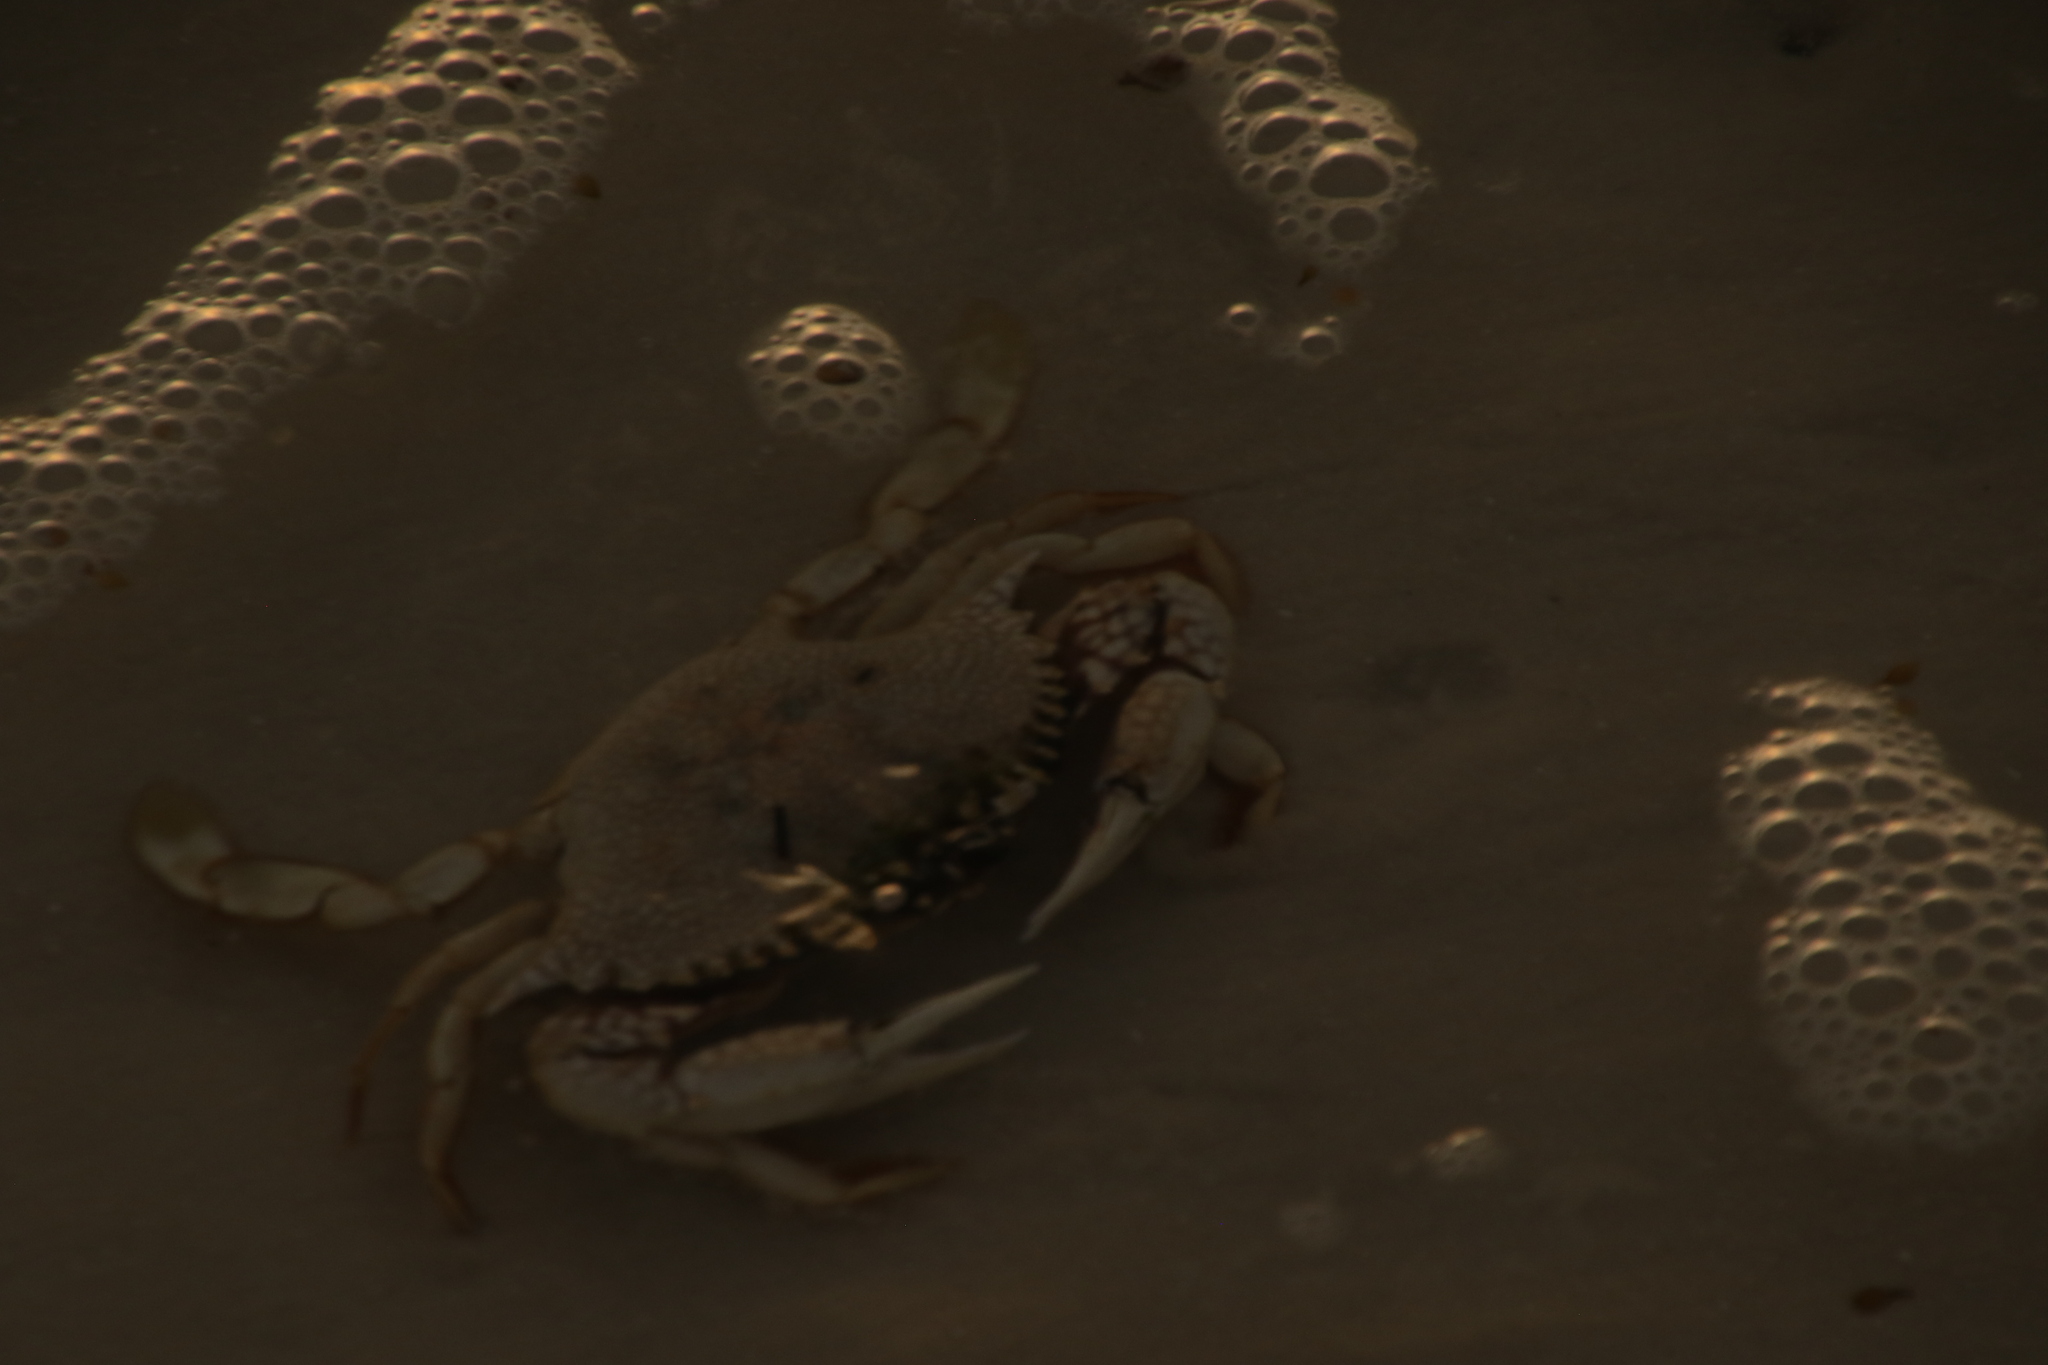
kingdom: Animalia
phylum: Arthropoda
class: Malacostraca
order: Decapoda
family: Portunidae
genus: Arenaeus
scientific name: Arenaeus cribrarius
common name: Speckled crab
